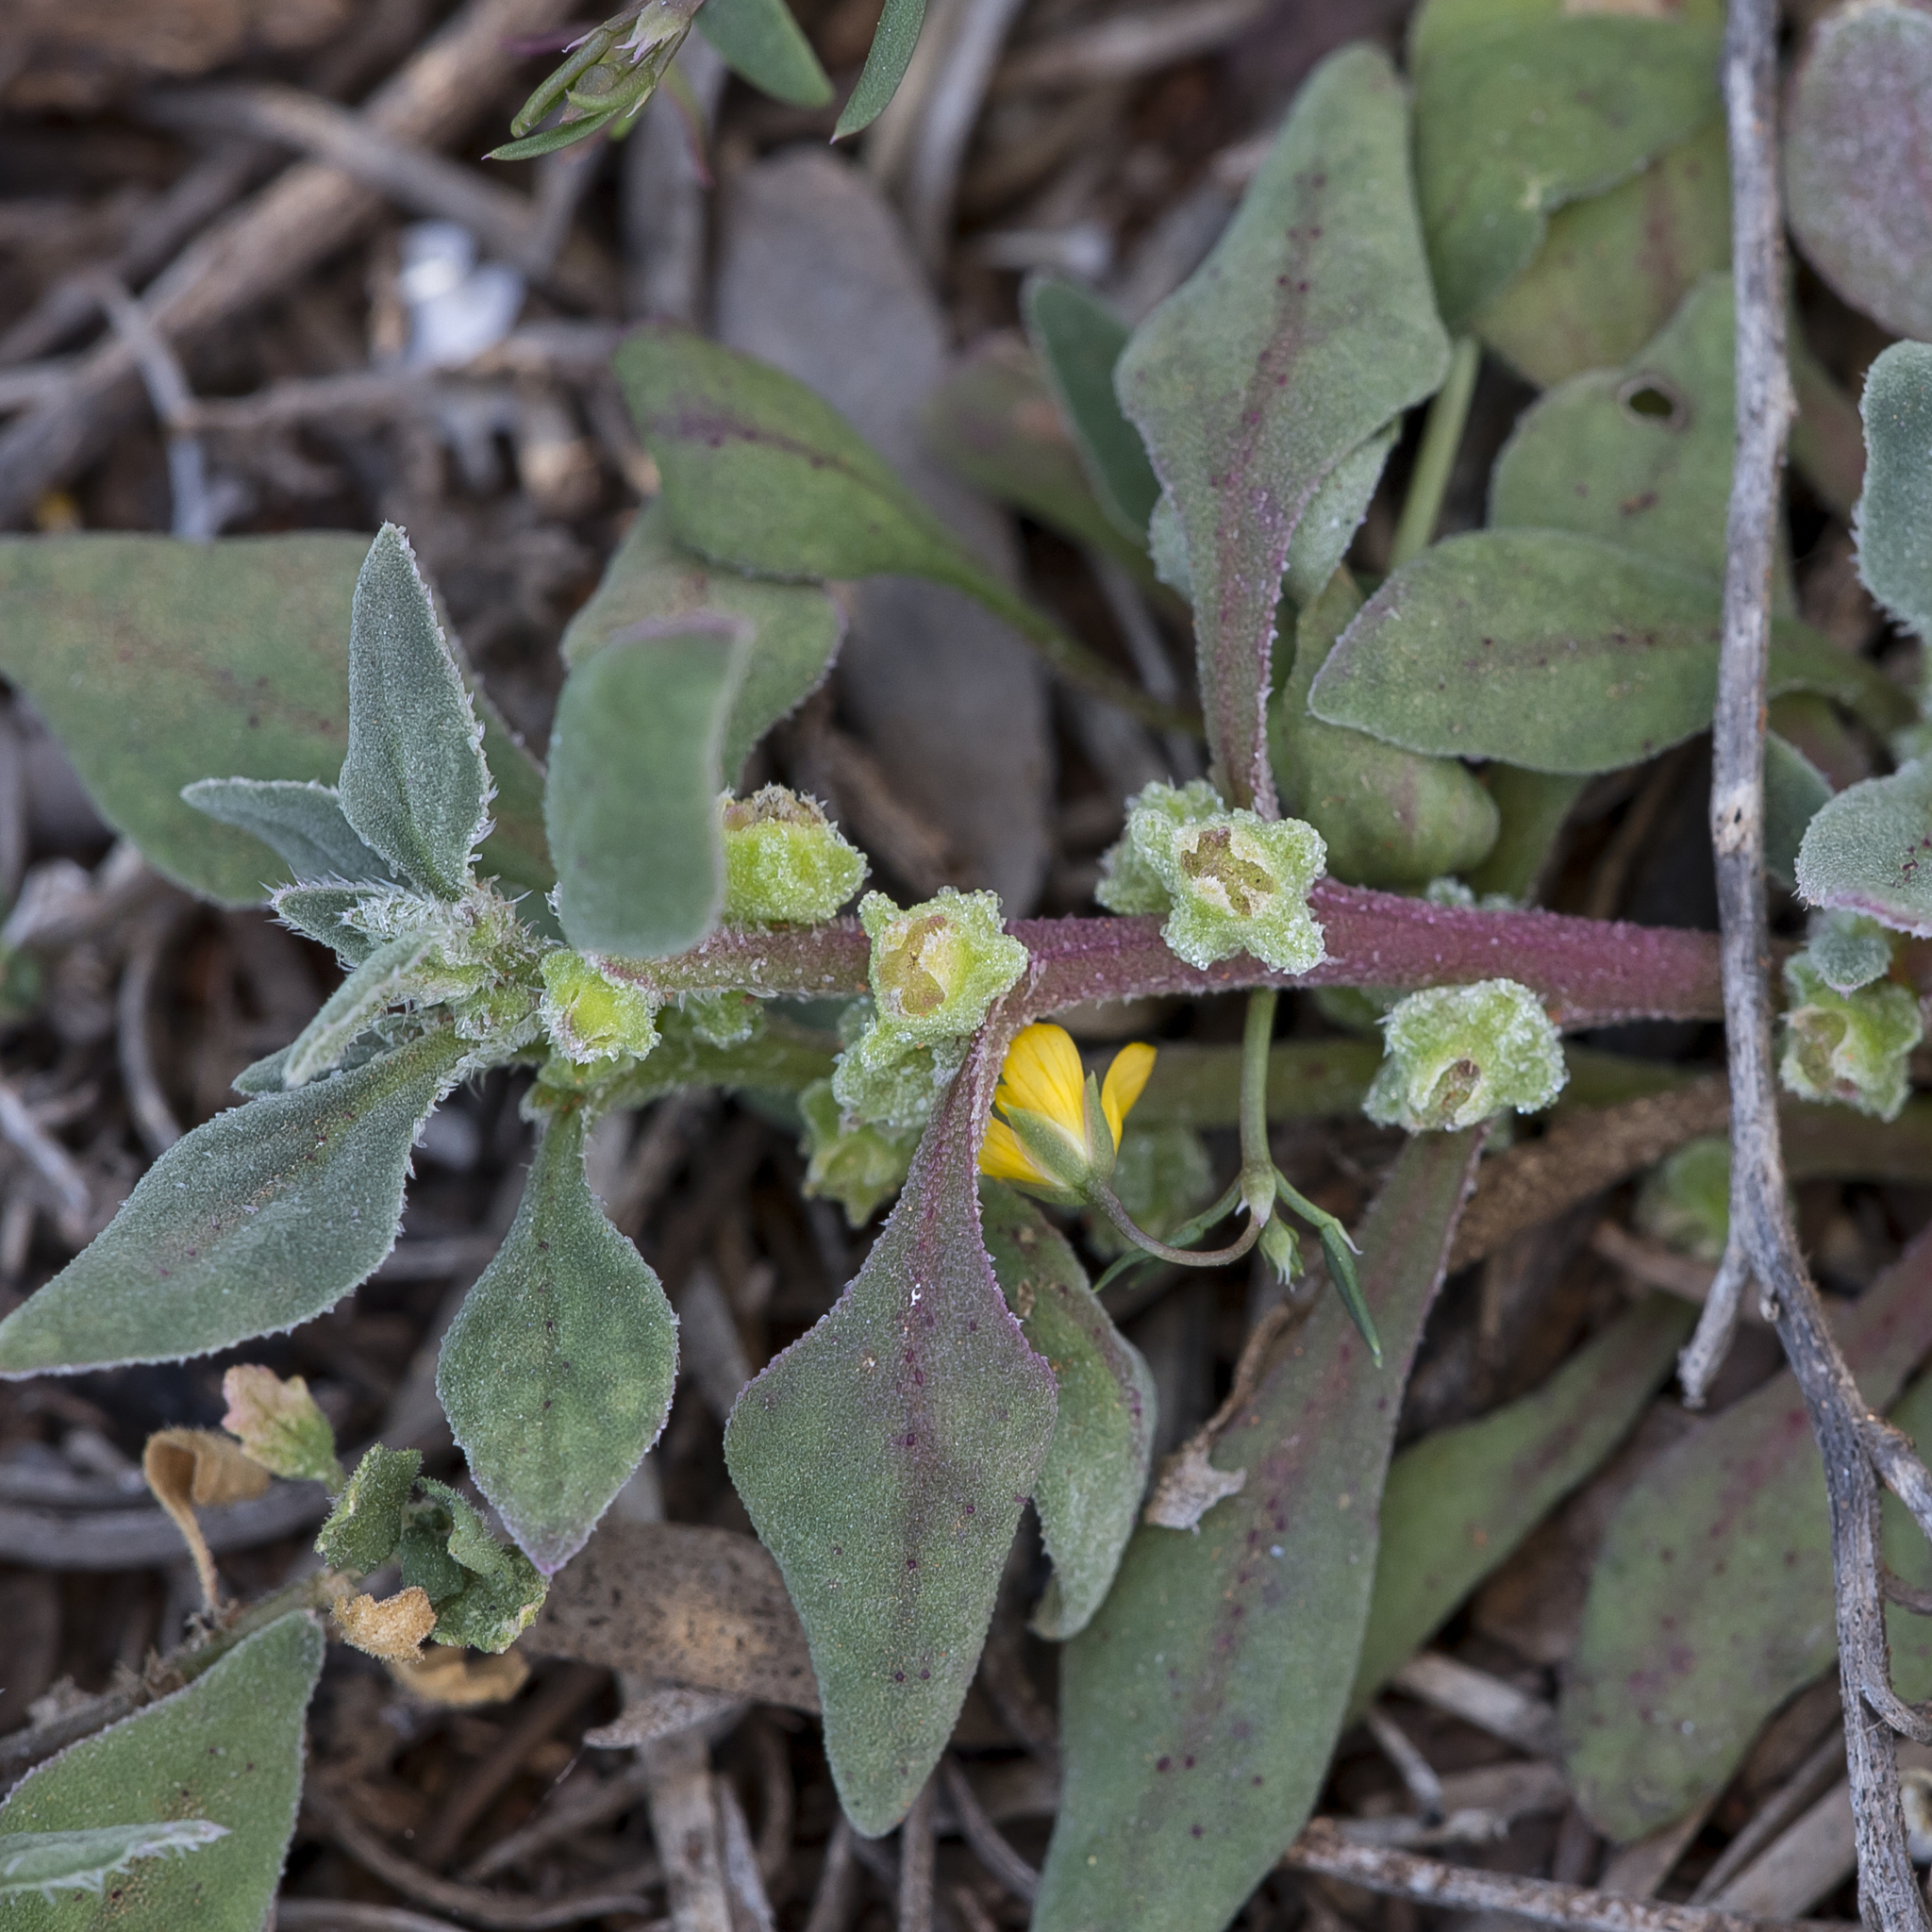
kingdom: Plantae
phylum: Tracheophyta
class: Magnoliopsida
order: Caryophyllales
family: Aizoaceae
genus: Tetragonia
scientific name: Tetragonia tetragonoides
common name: New zealand-spinach
